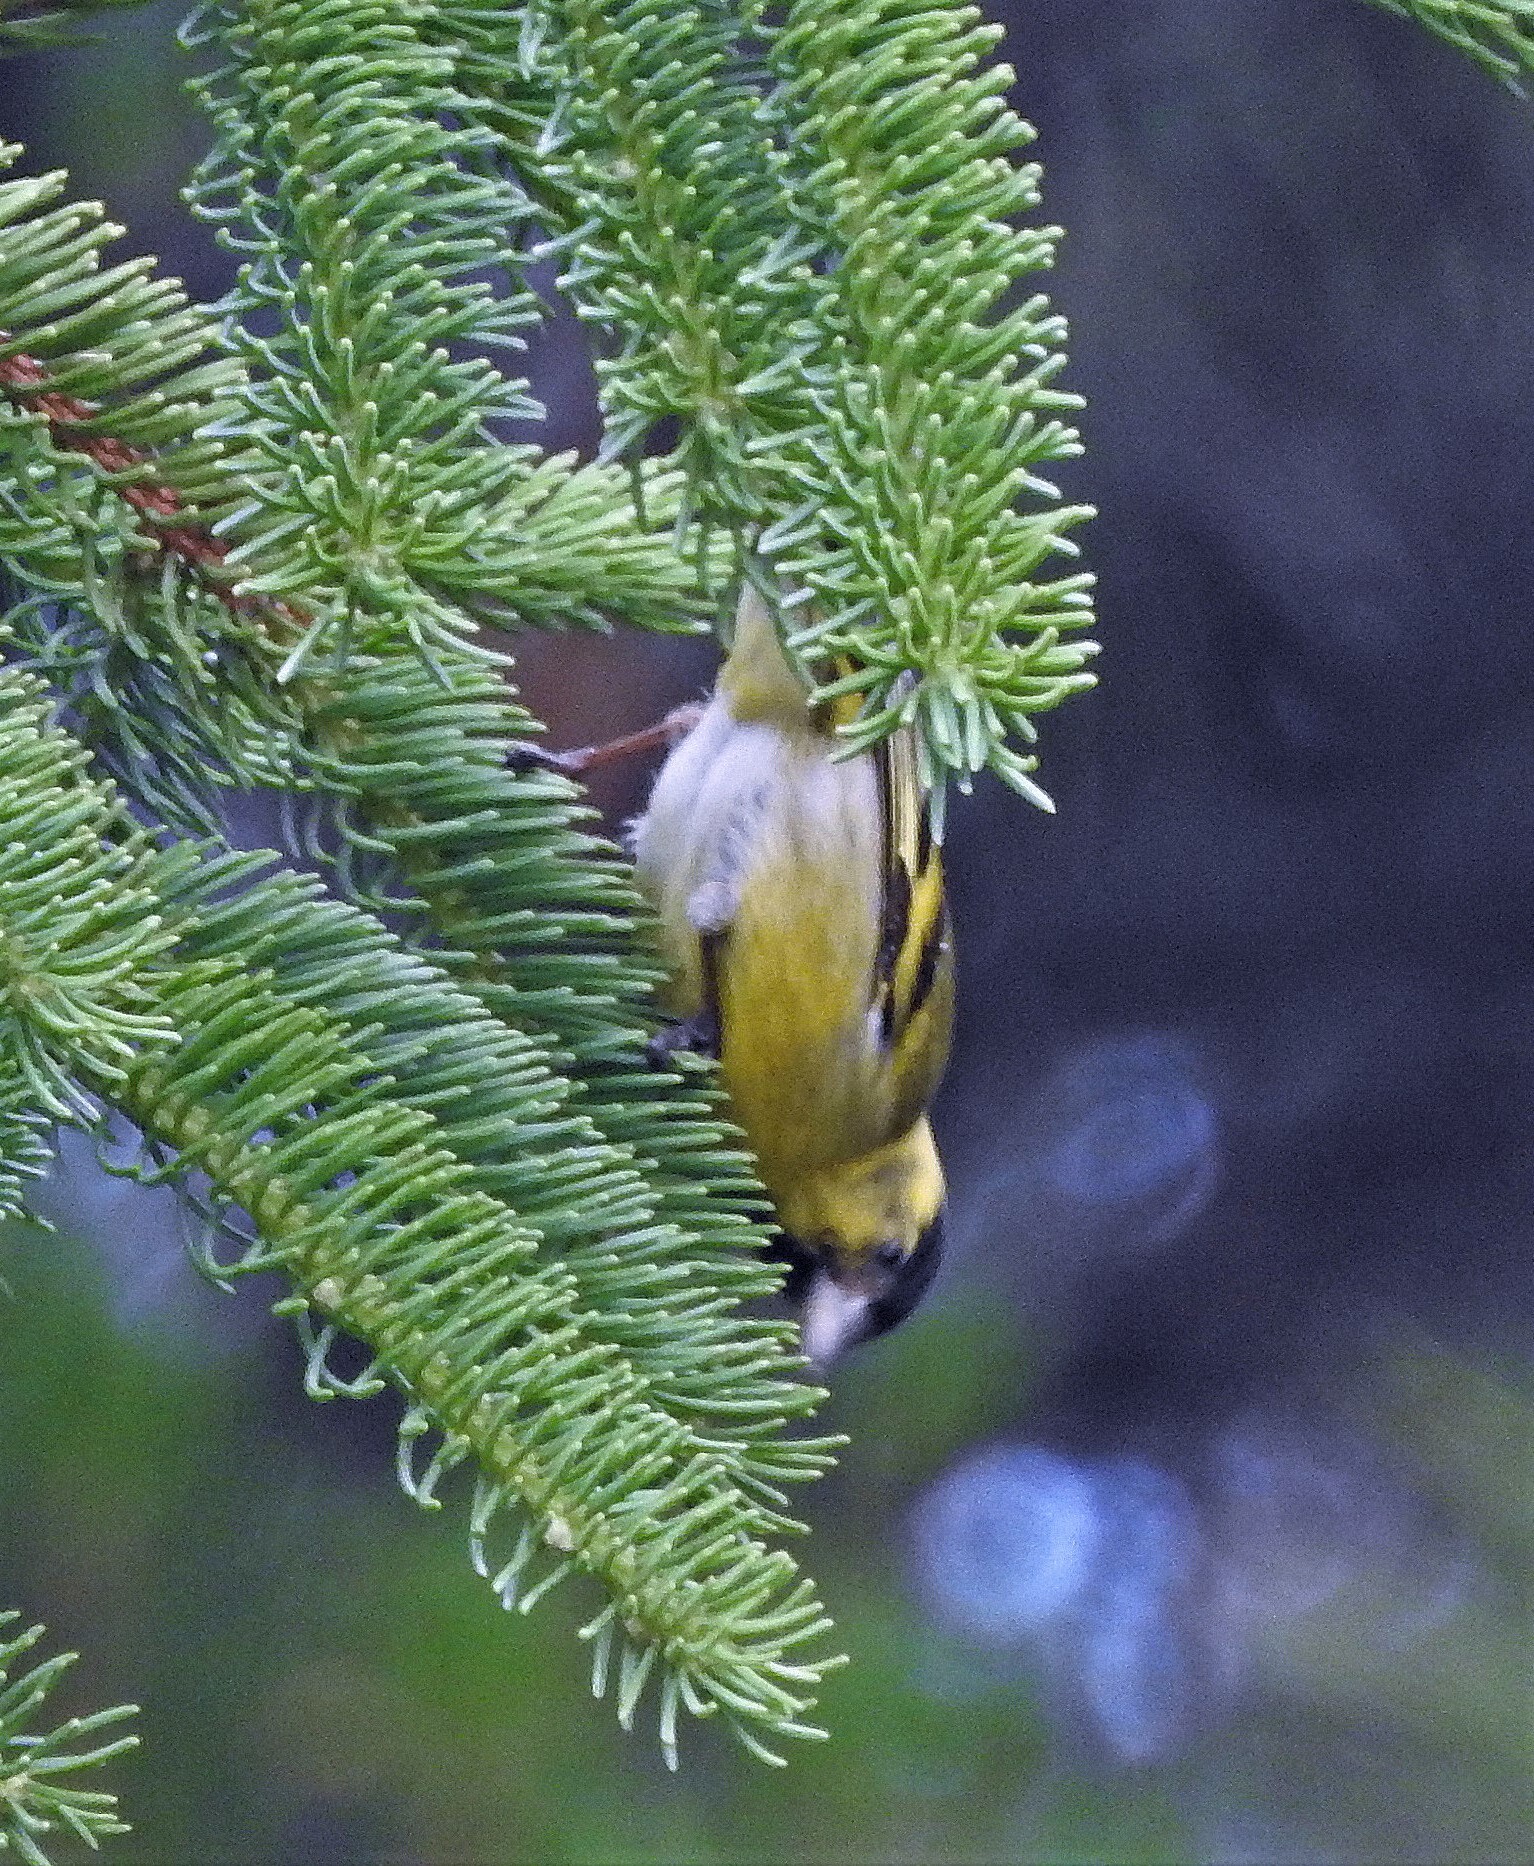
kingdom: Animalia
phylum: Chordata
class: Aves
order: Passeriformes
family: Fringillidae
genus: Spinus
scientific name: Spinus barbatus
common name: Black-chinned siskin
